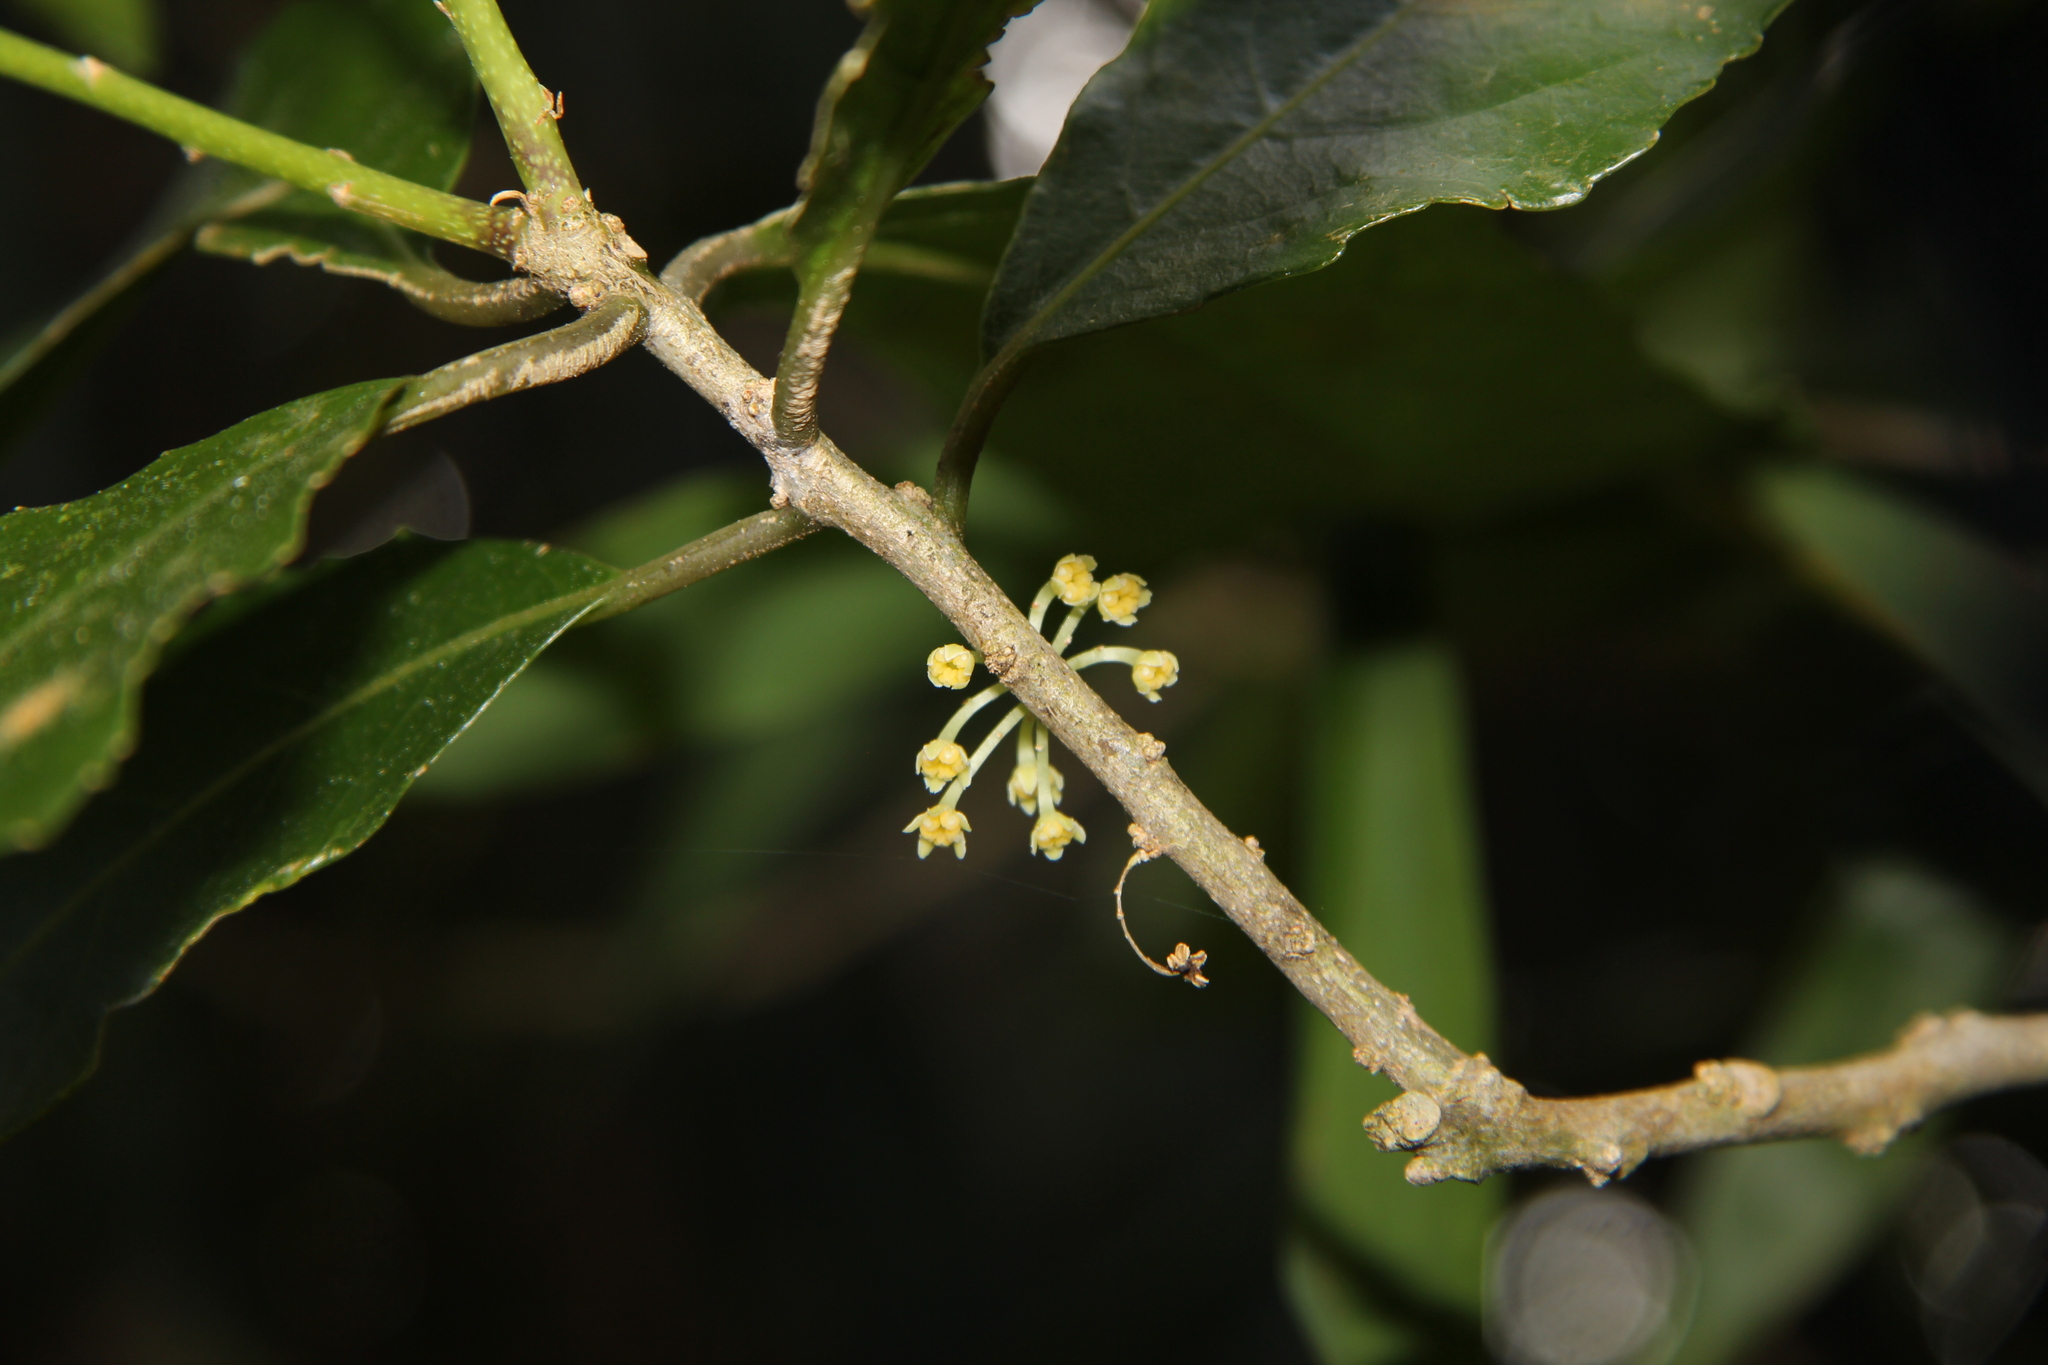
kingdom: Plantae
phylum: Tracheophyta
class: Magnoliopsida
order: Malpighiales
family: Violaceae
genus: Melicytus
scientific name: Melicytus ramiflorus
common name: Mahoe
